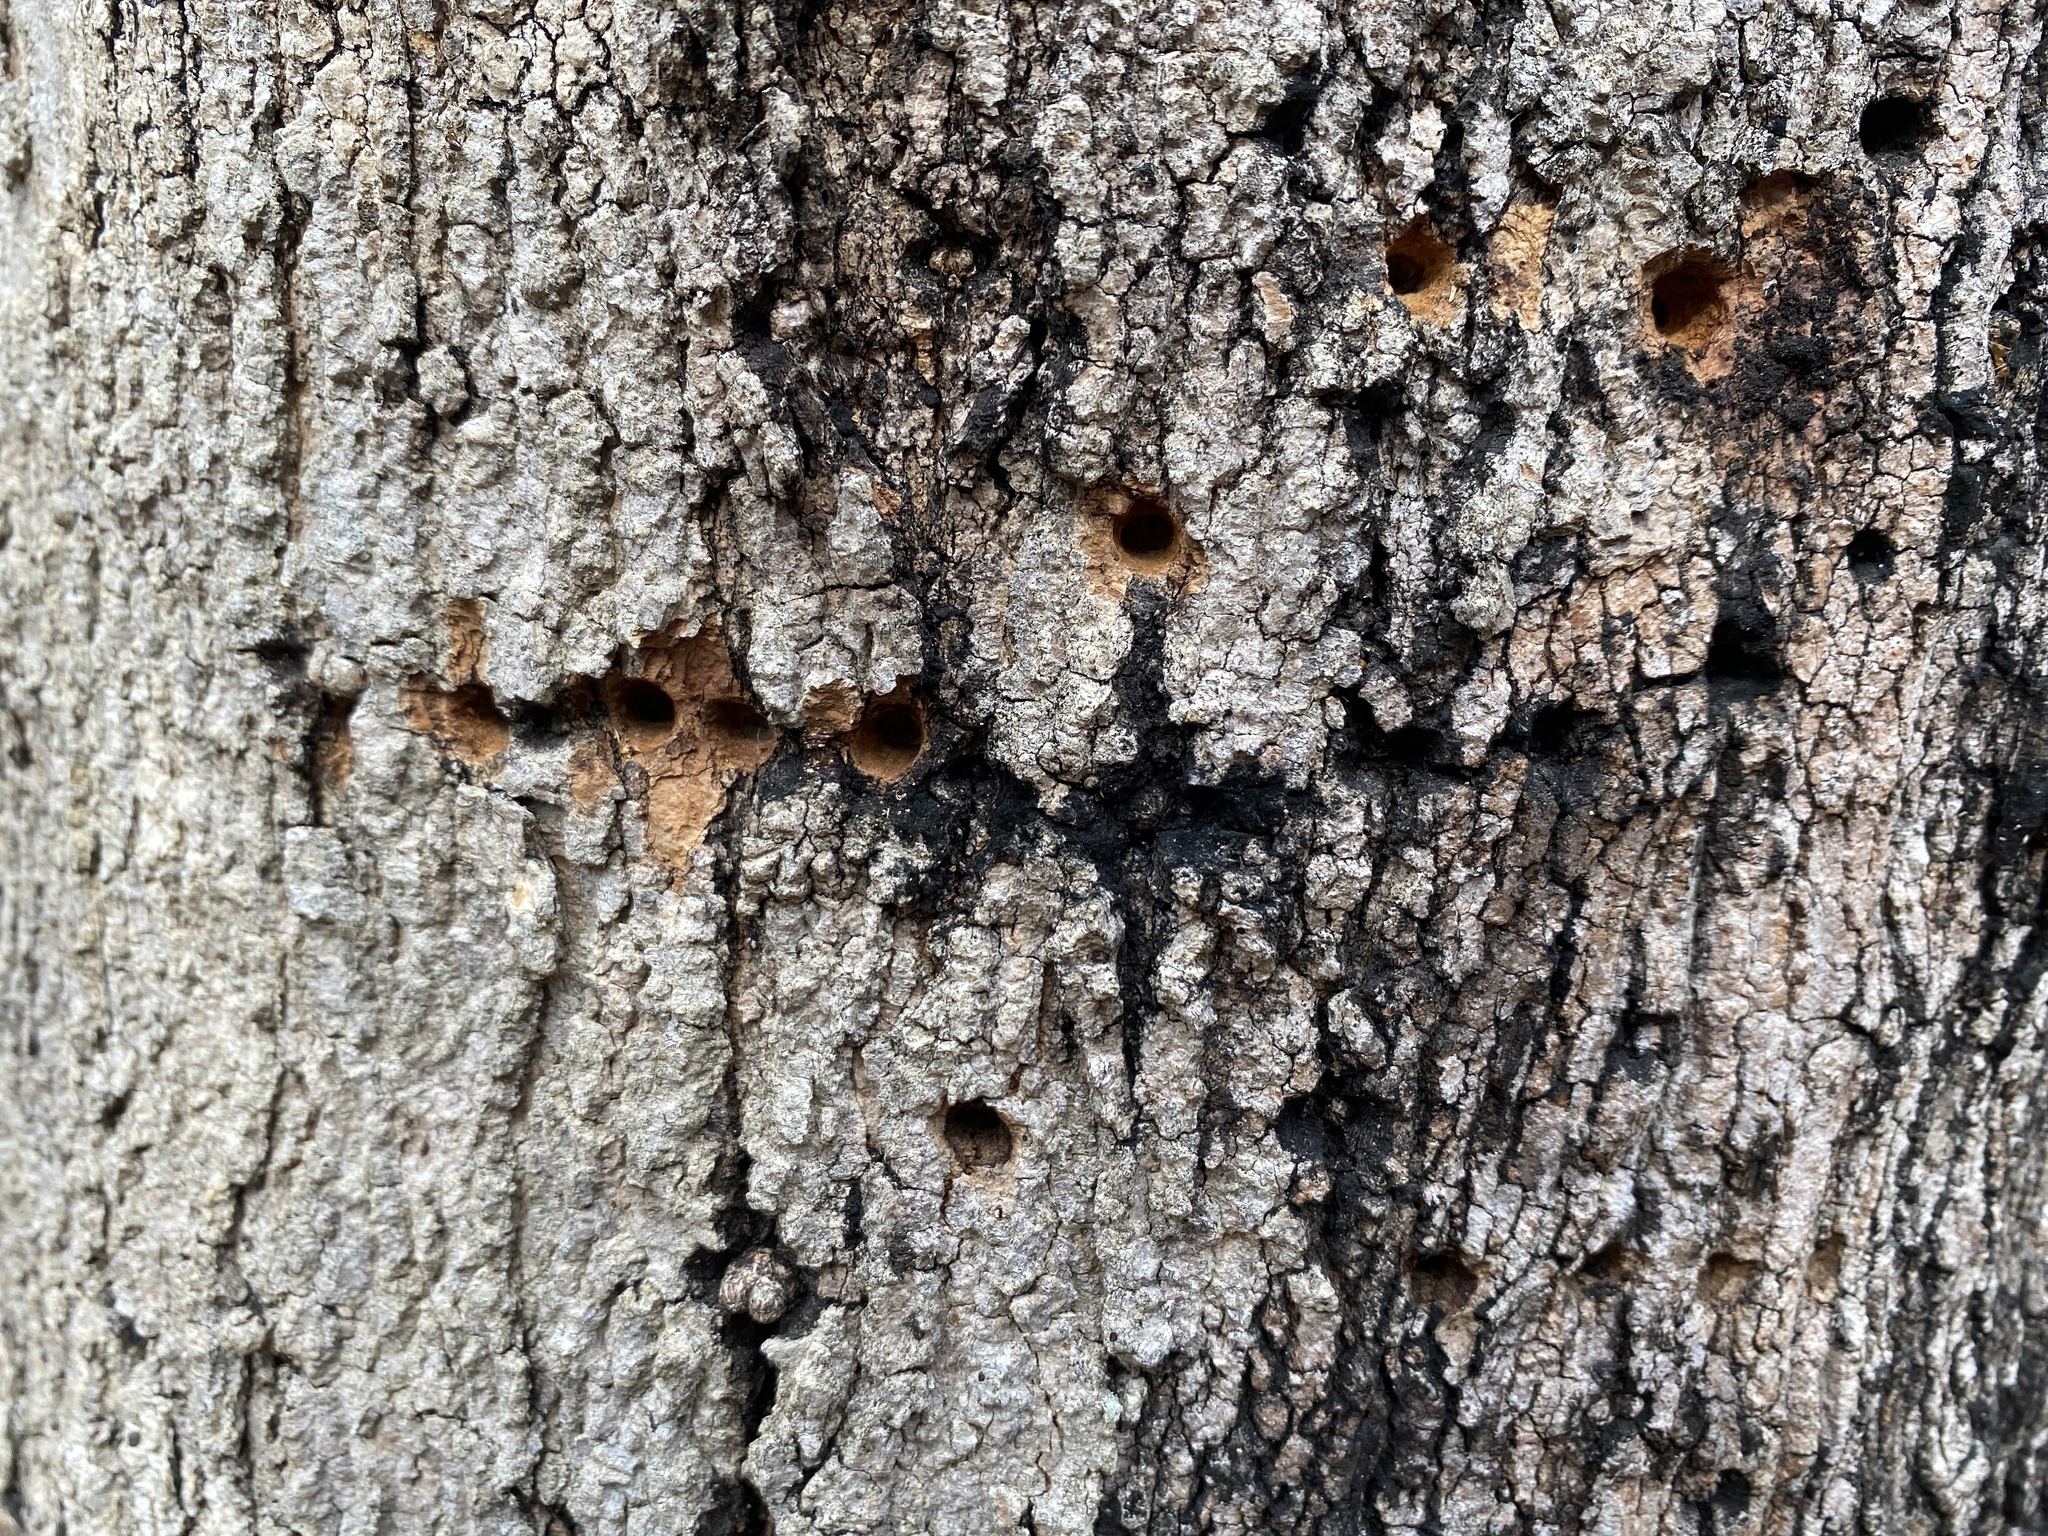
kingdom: Animalia
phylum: Chordata
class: Aves
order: Piciformes
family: Picidae
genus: Sphyrapicus
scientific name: Sphyrapicus varius
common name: Yellow-bellied sapsucker
